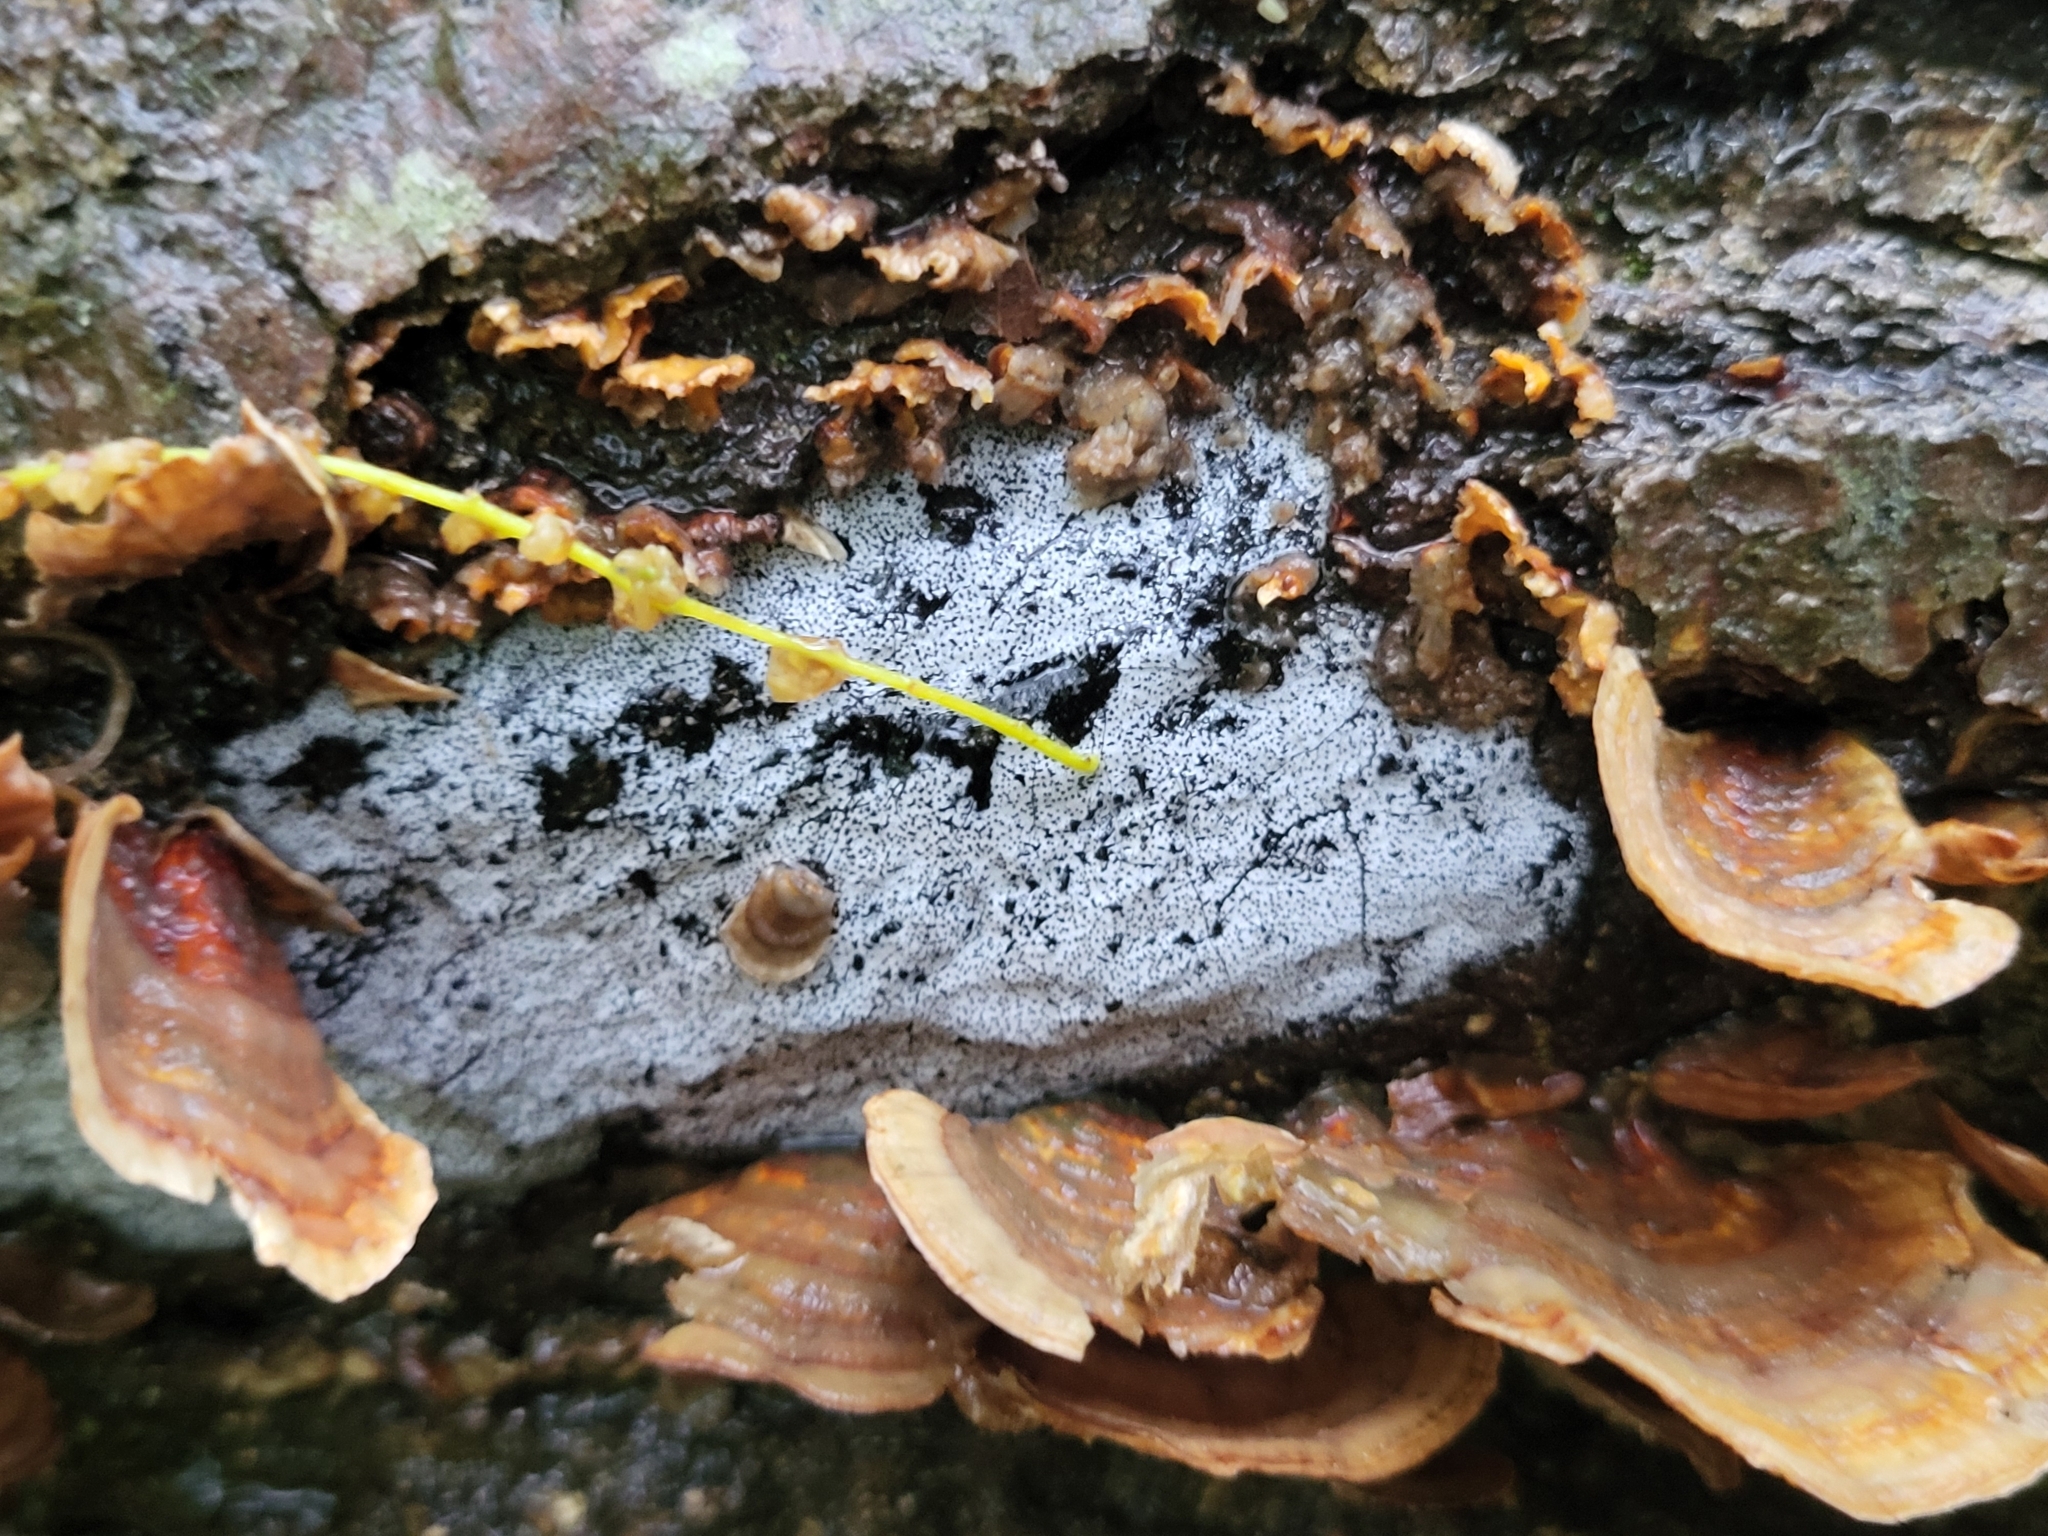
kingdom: Fungi
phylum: Ascomycota
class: Sordariomycetes
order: Xylariales
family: Graphostromataceae
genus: Biscogniauxia
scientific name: Biscogniauxia atropunctata
